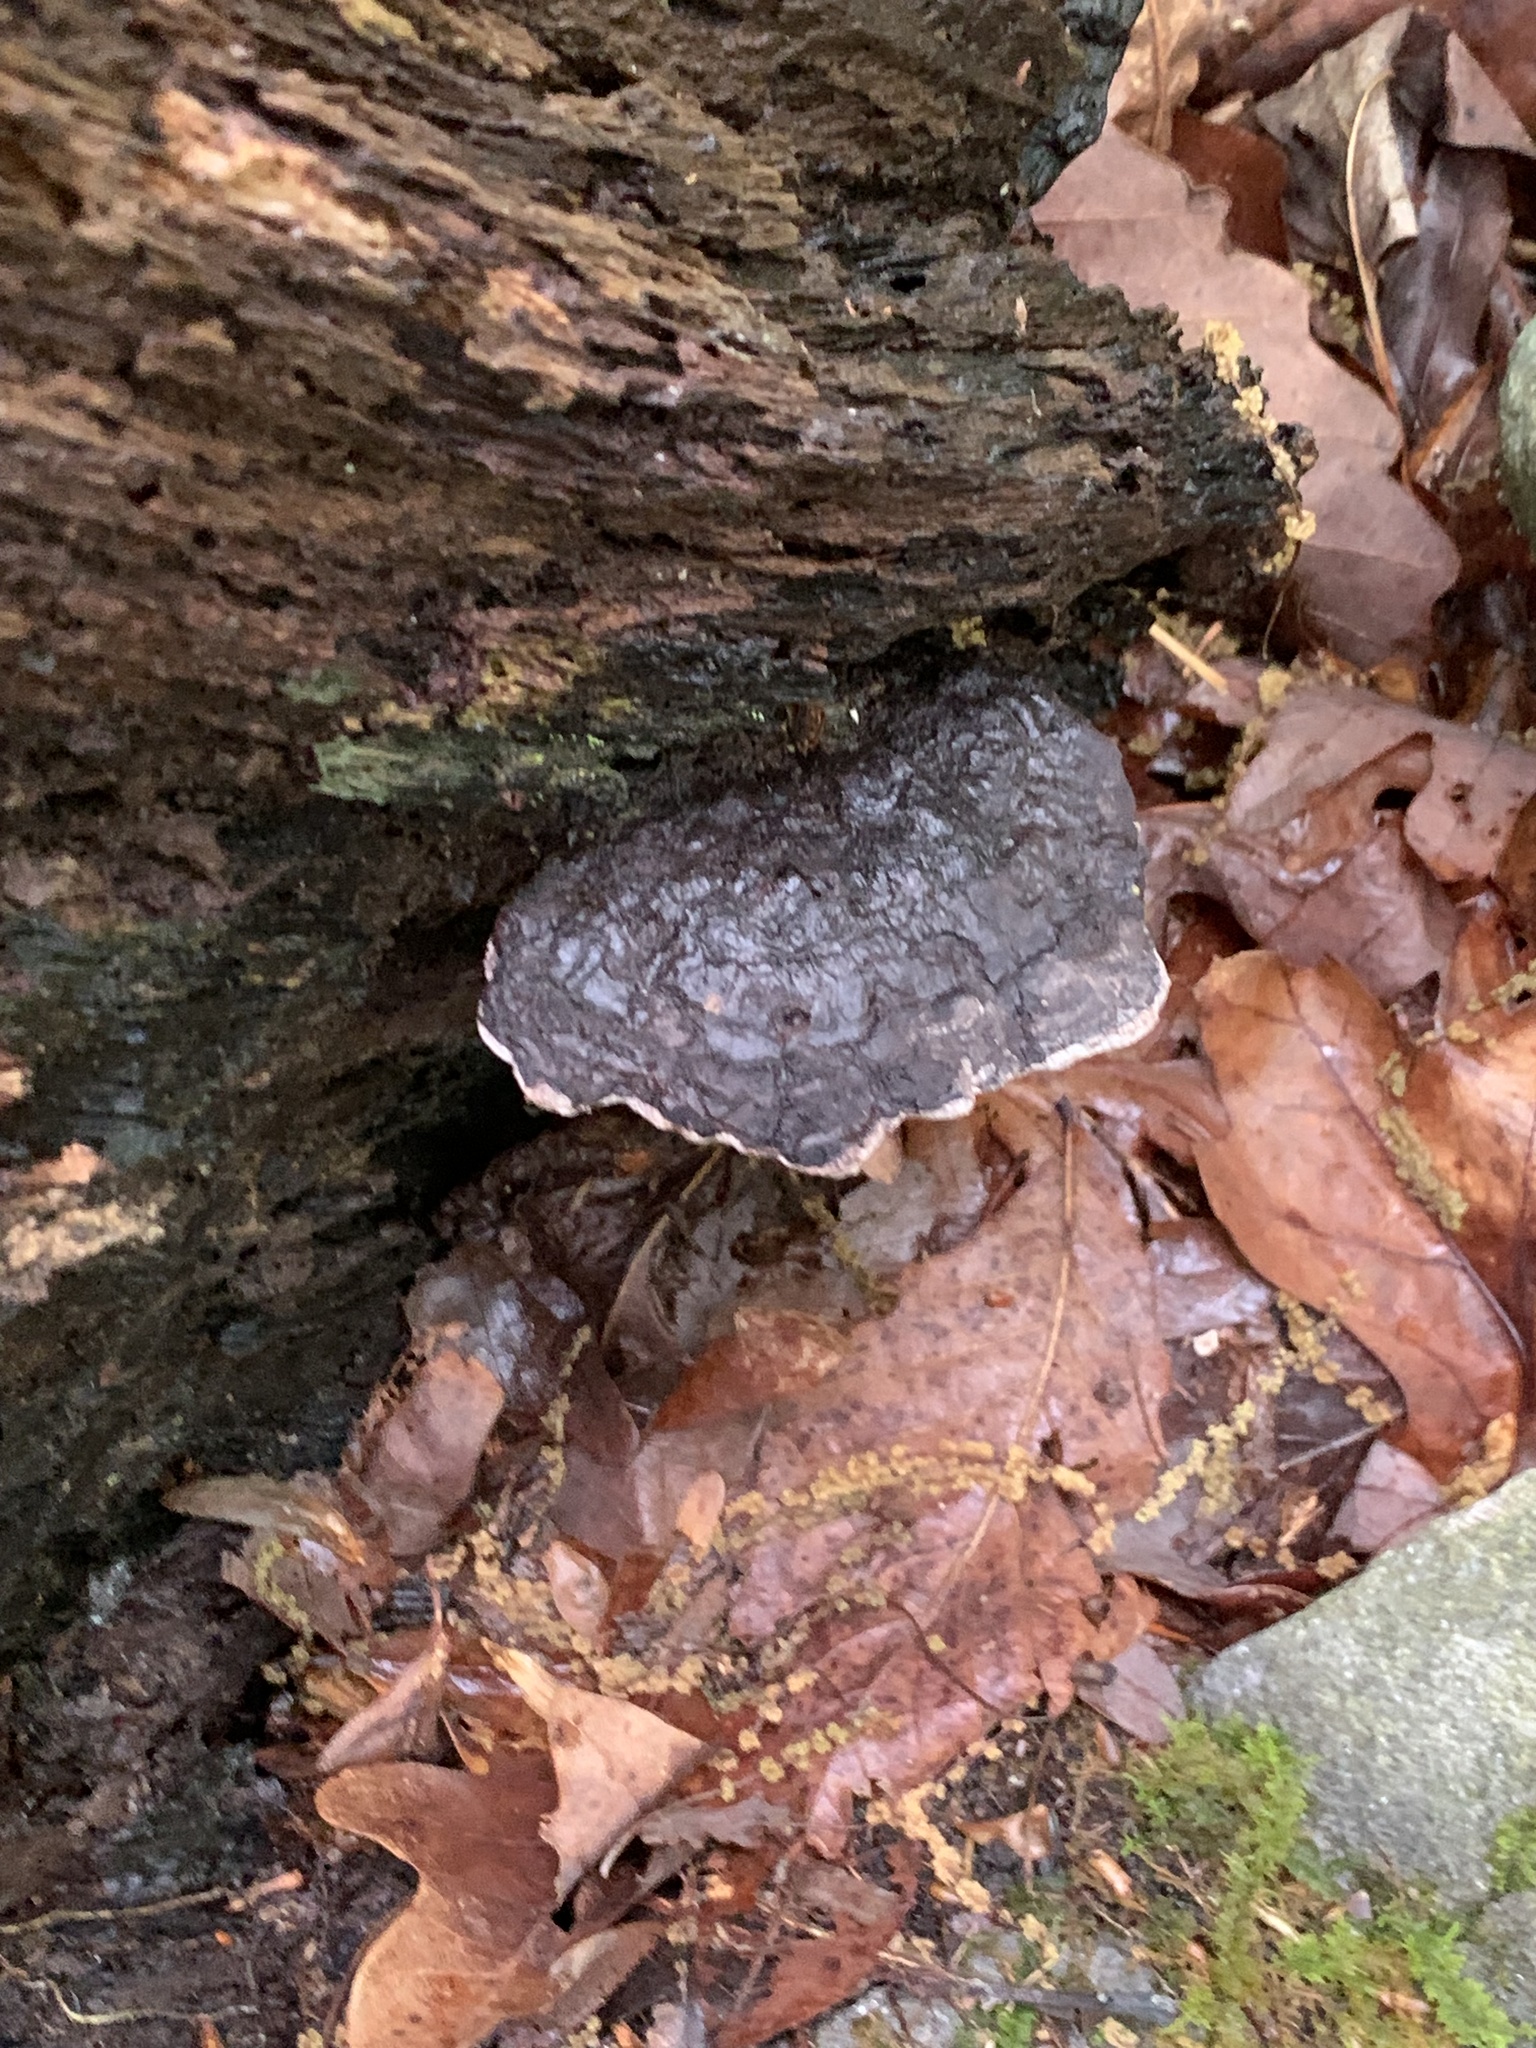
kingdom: Fungi
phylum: Basidiomycota
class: Agaricomycetes
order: Polyporales
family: Polyporaceae
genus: Ganoderma
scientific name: Ganoderma applanatum
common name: Artist's bracket
